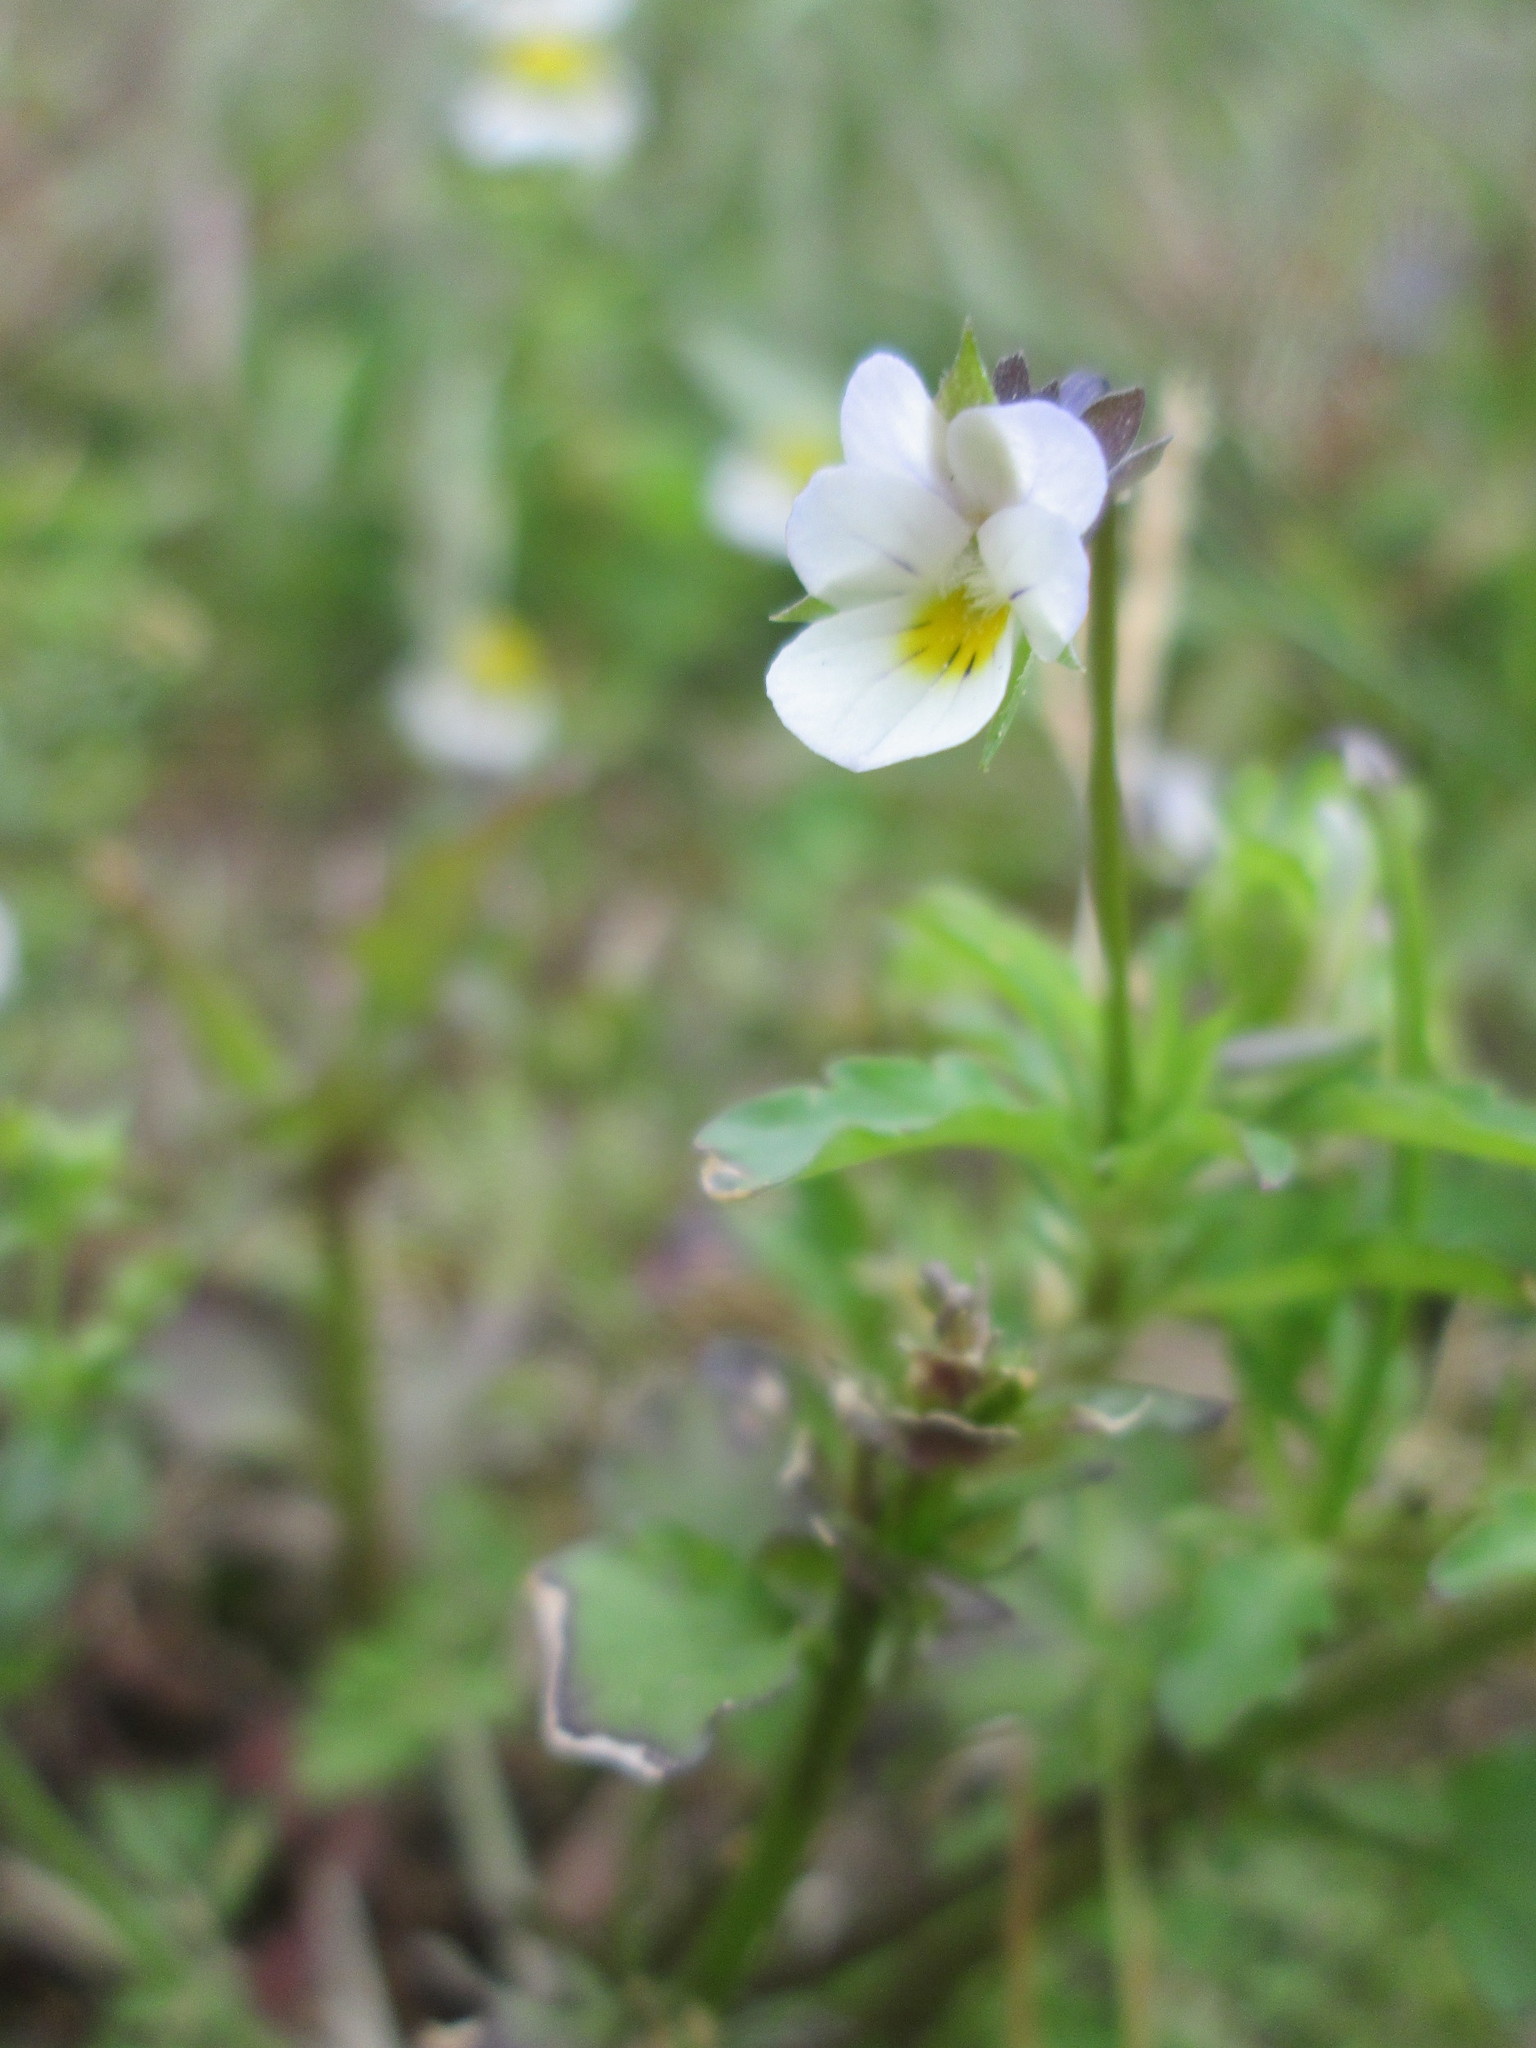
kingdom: Plantae
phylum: Tracheophyta
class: Magnoliopsida
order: Malpighiales
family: Violaceae
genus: Viola
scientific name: Viola arvensis
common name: Field pansy
